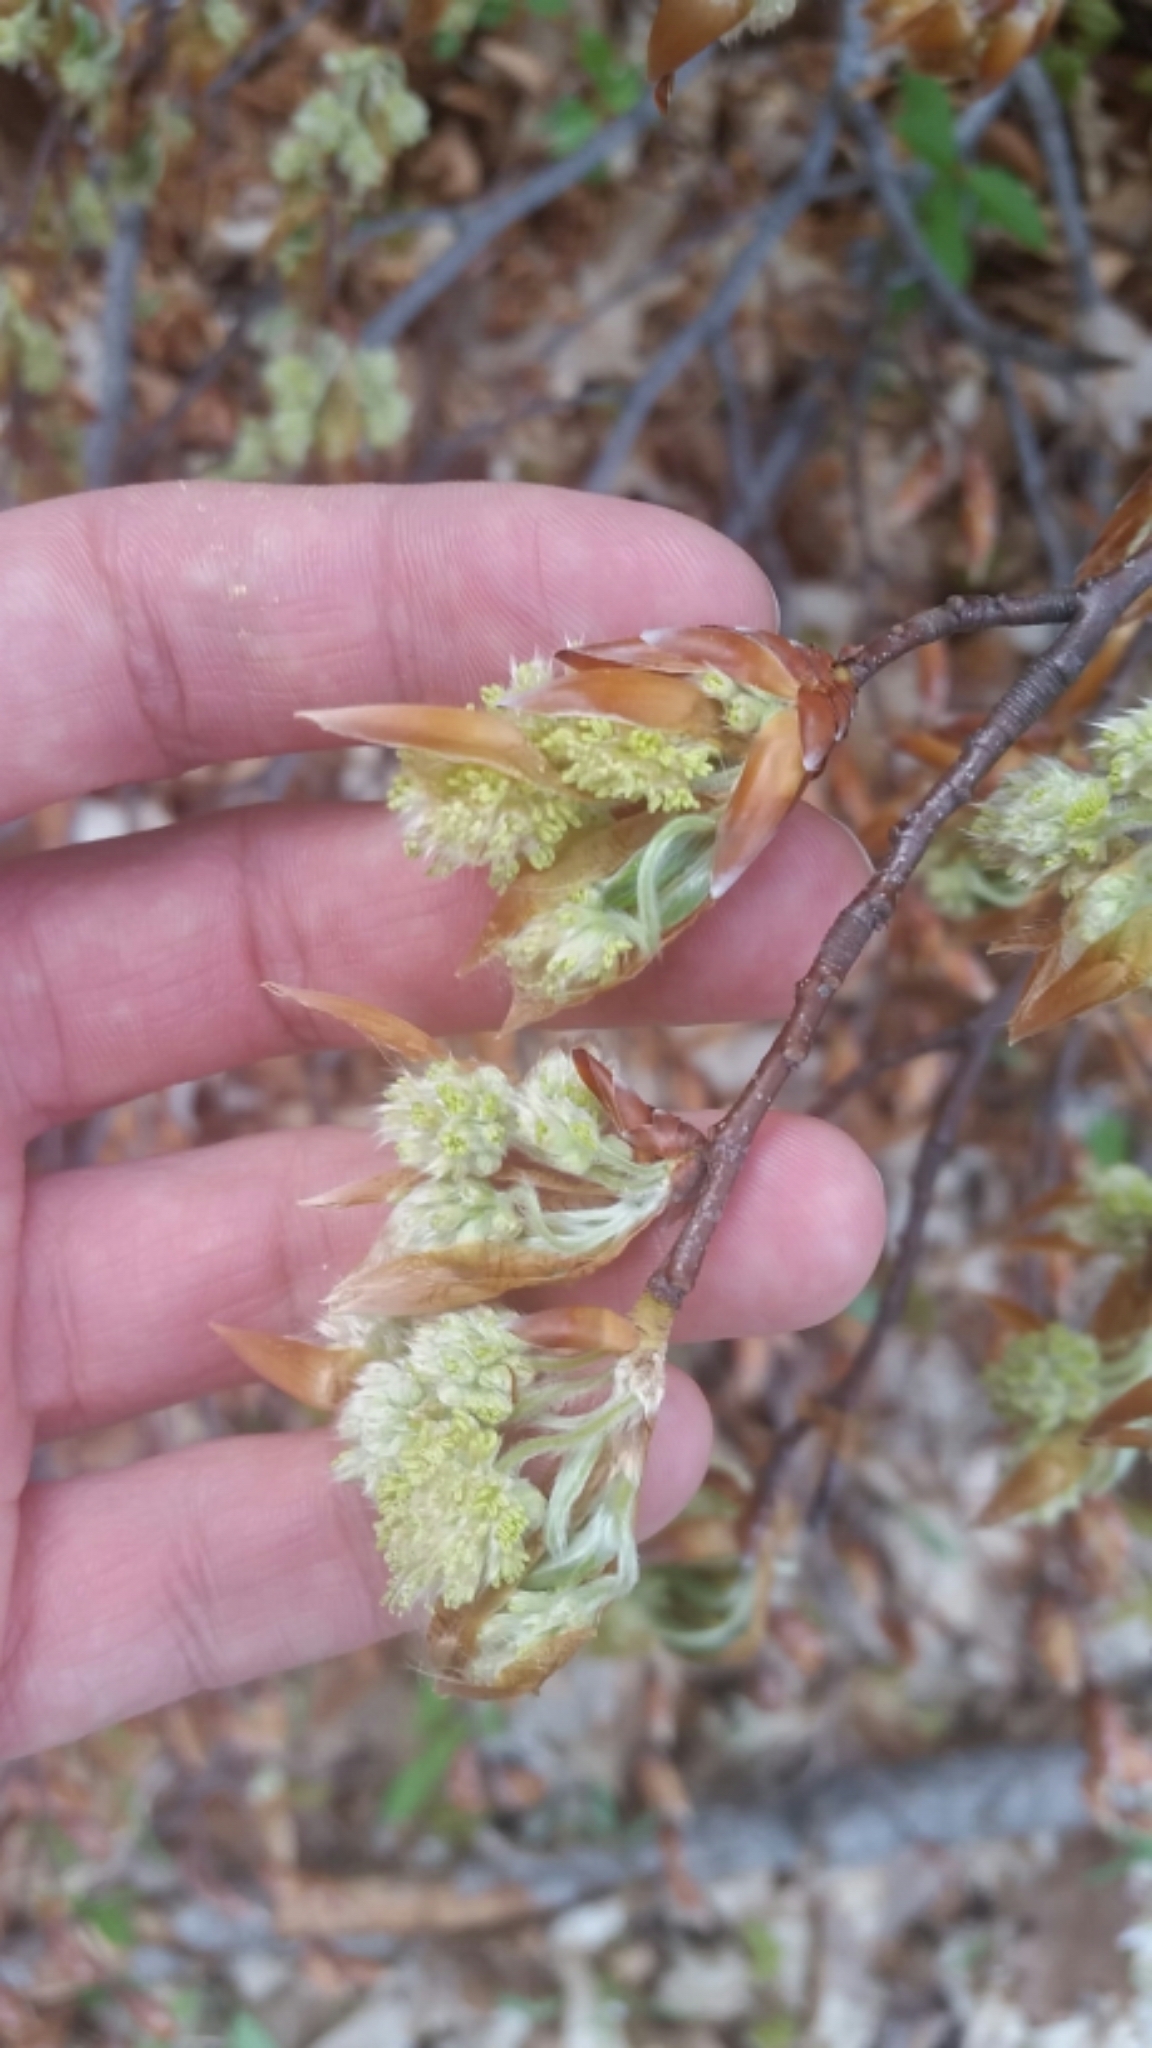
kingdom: Plantae
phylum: Tracheophyta
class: Magnoliopsida
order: Fagales
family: Fagaceae
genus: Fagus
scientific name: Fagus grandifolia
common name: American beech
